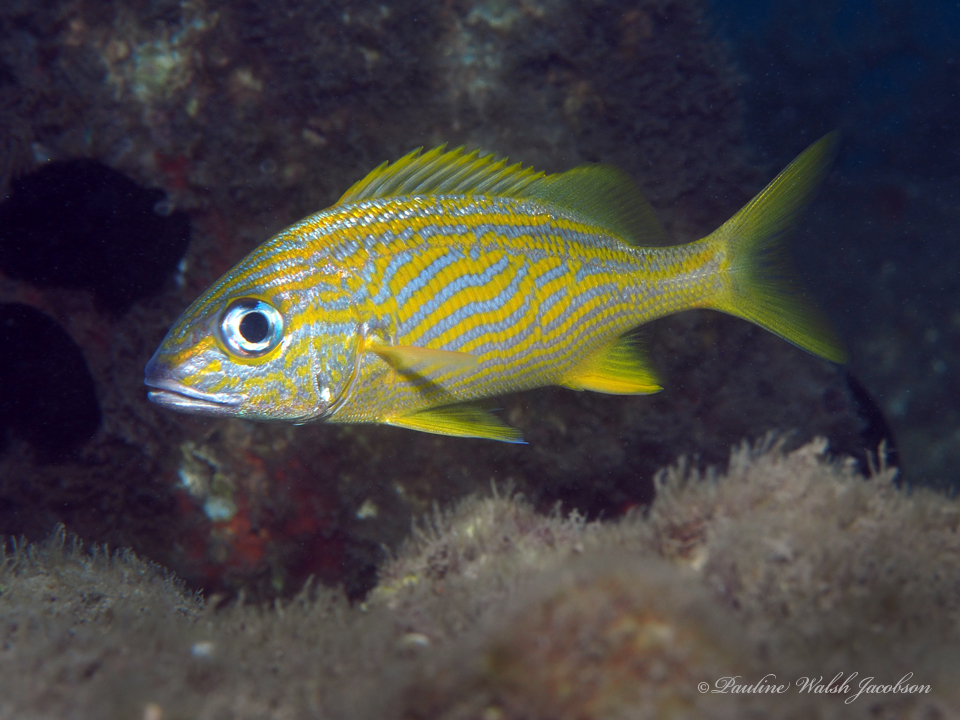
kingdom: Animalia
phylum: Chordata
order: Perciformes
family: Haemulidae
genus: Haemulon
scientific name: Haemulon flavolineatum
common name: French grunt
